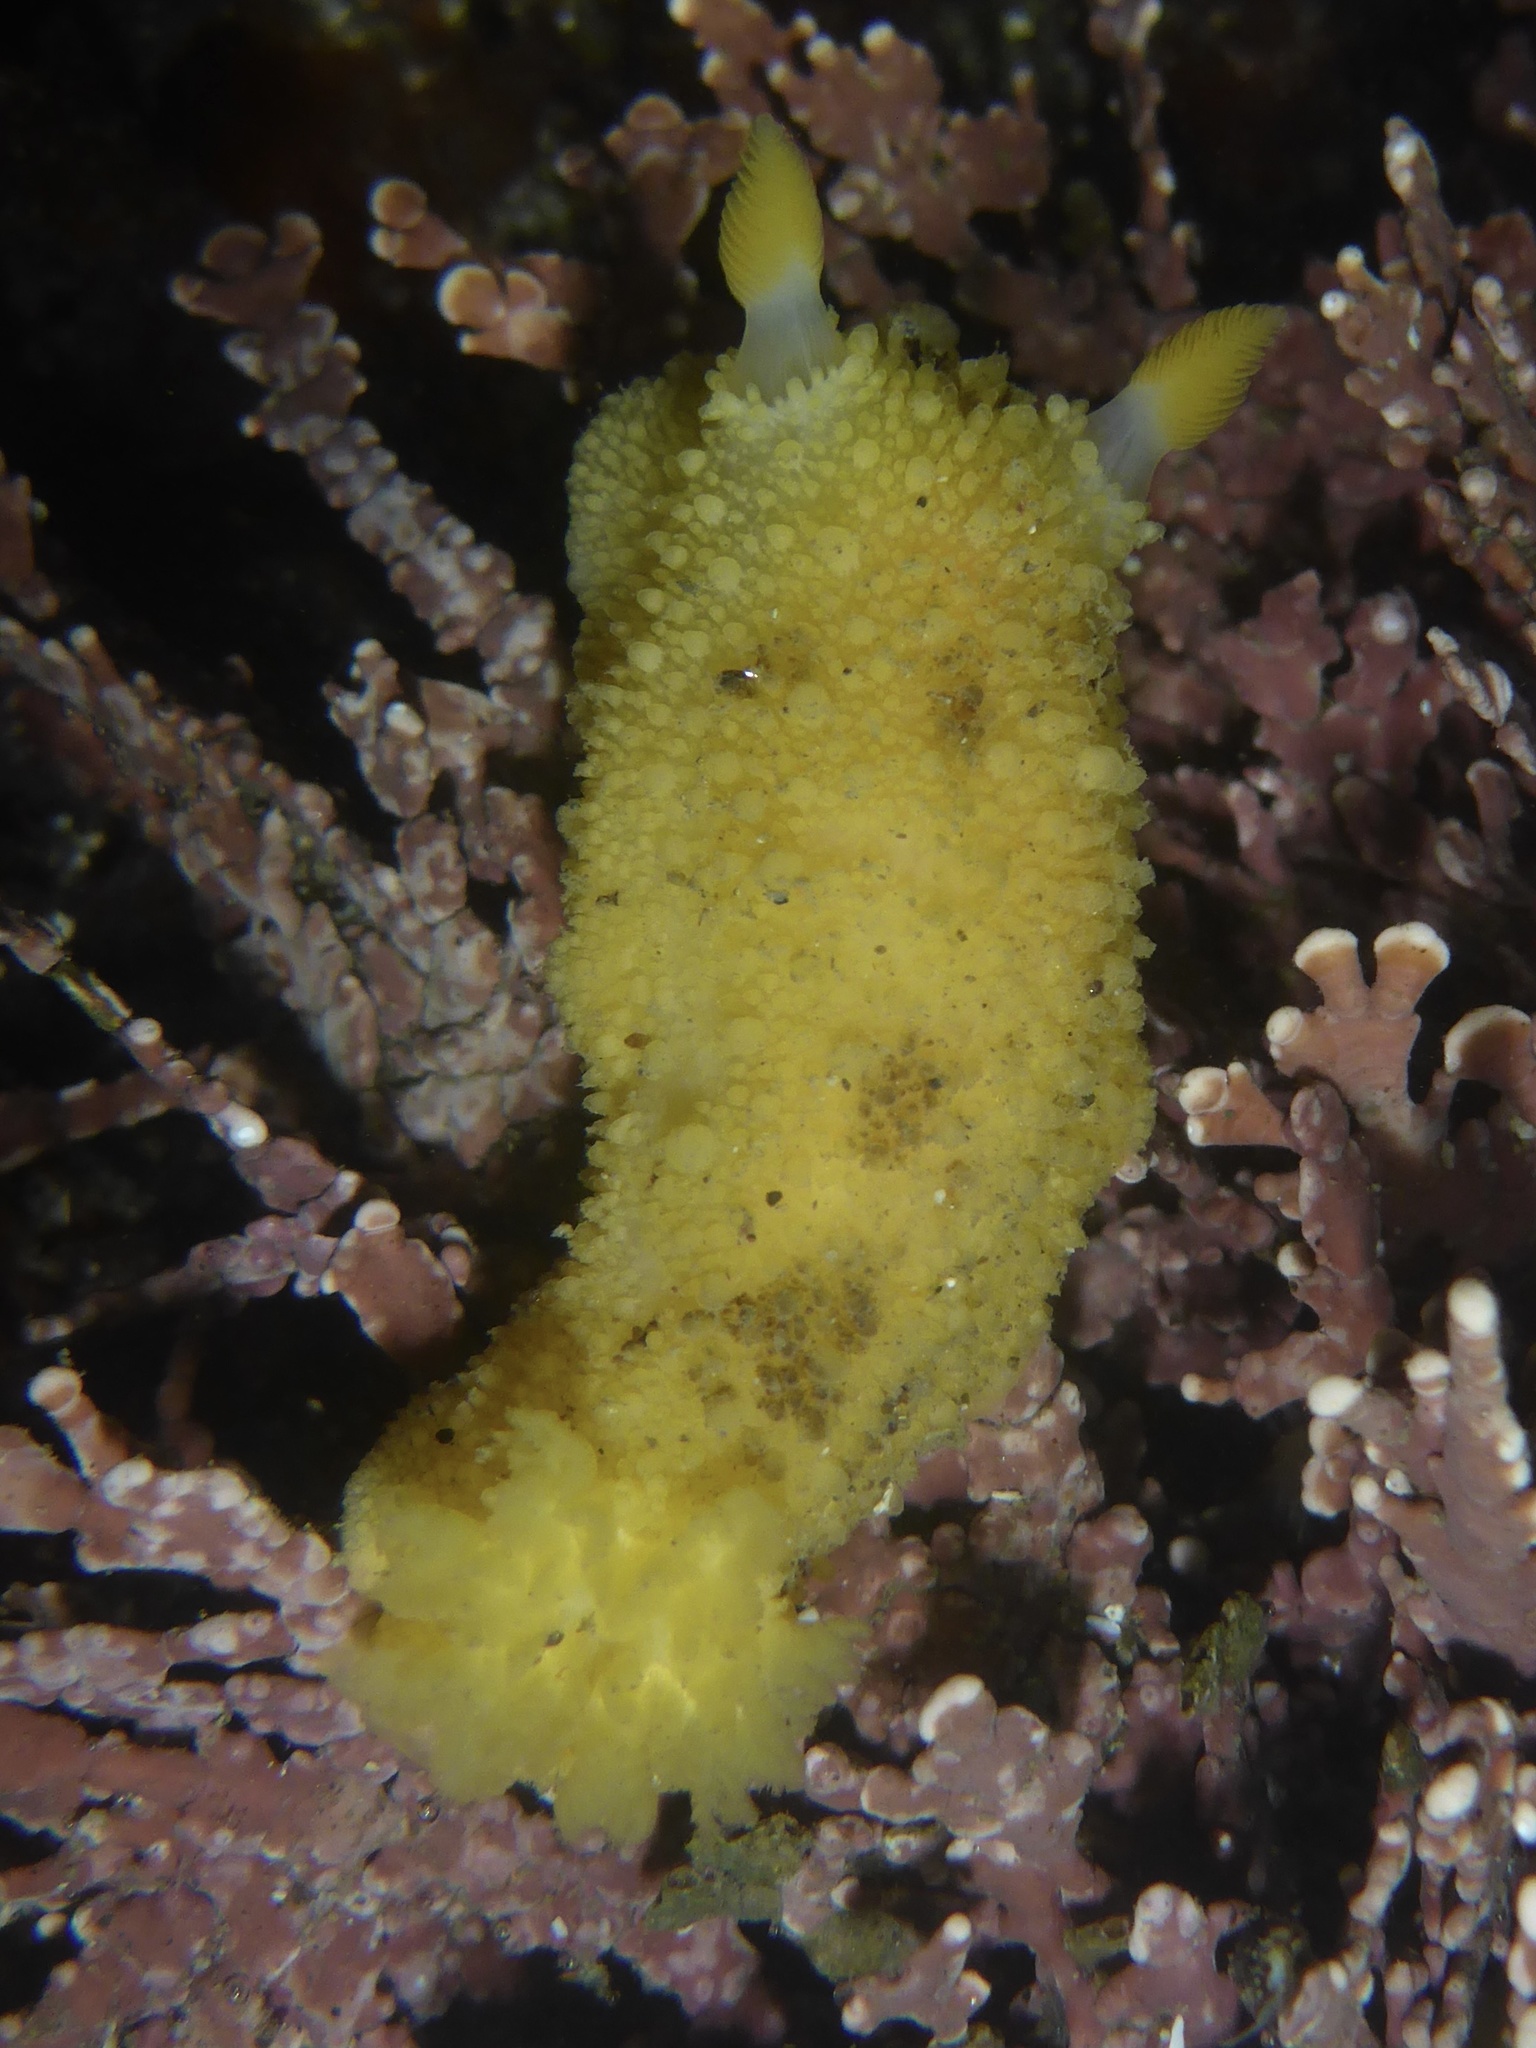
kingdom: Animalia
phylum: Mollusca
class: Gastropoda
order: Nudibranchia
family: Dorididae
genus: Doris
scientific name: Doris montereyensis
